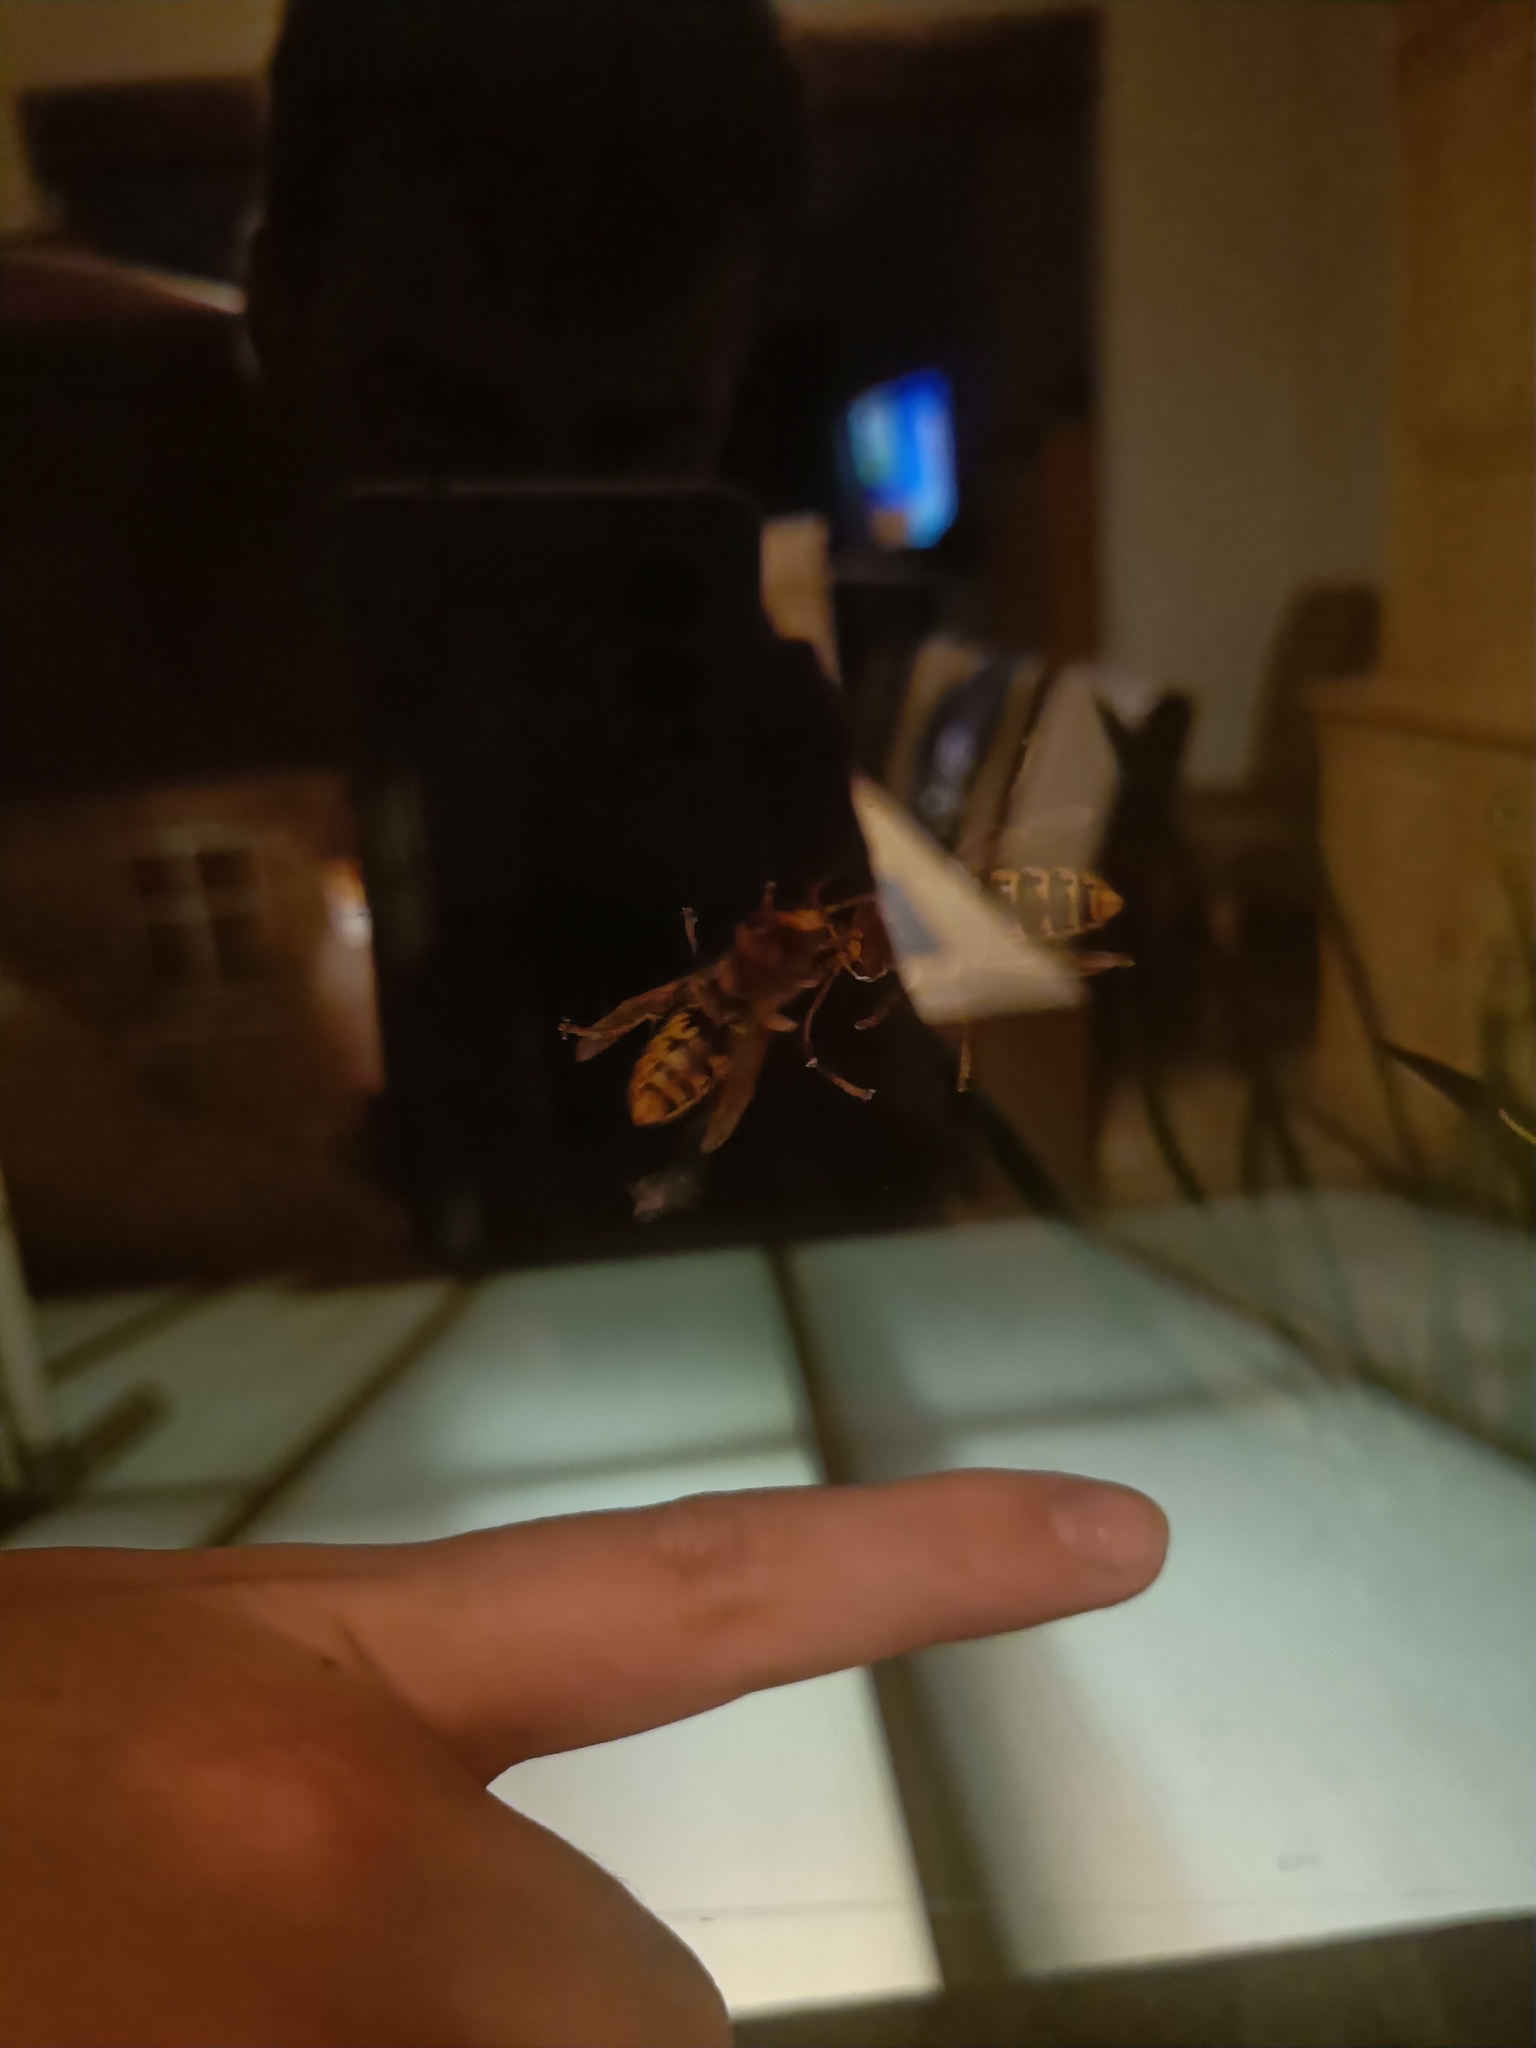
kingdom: Animalia
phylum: Arthropoda
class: Insecta
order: Hymenoptera
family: Vespidae
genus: Vespa
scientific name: Vespa crabro
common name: Hornet
